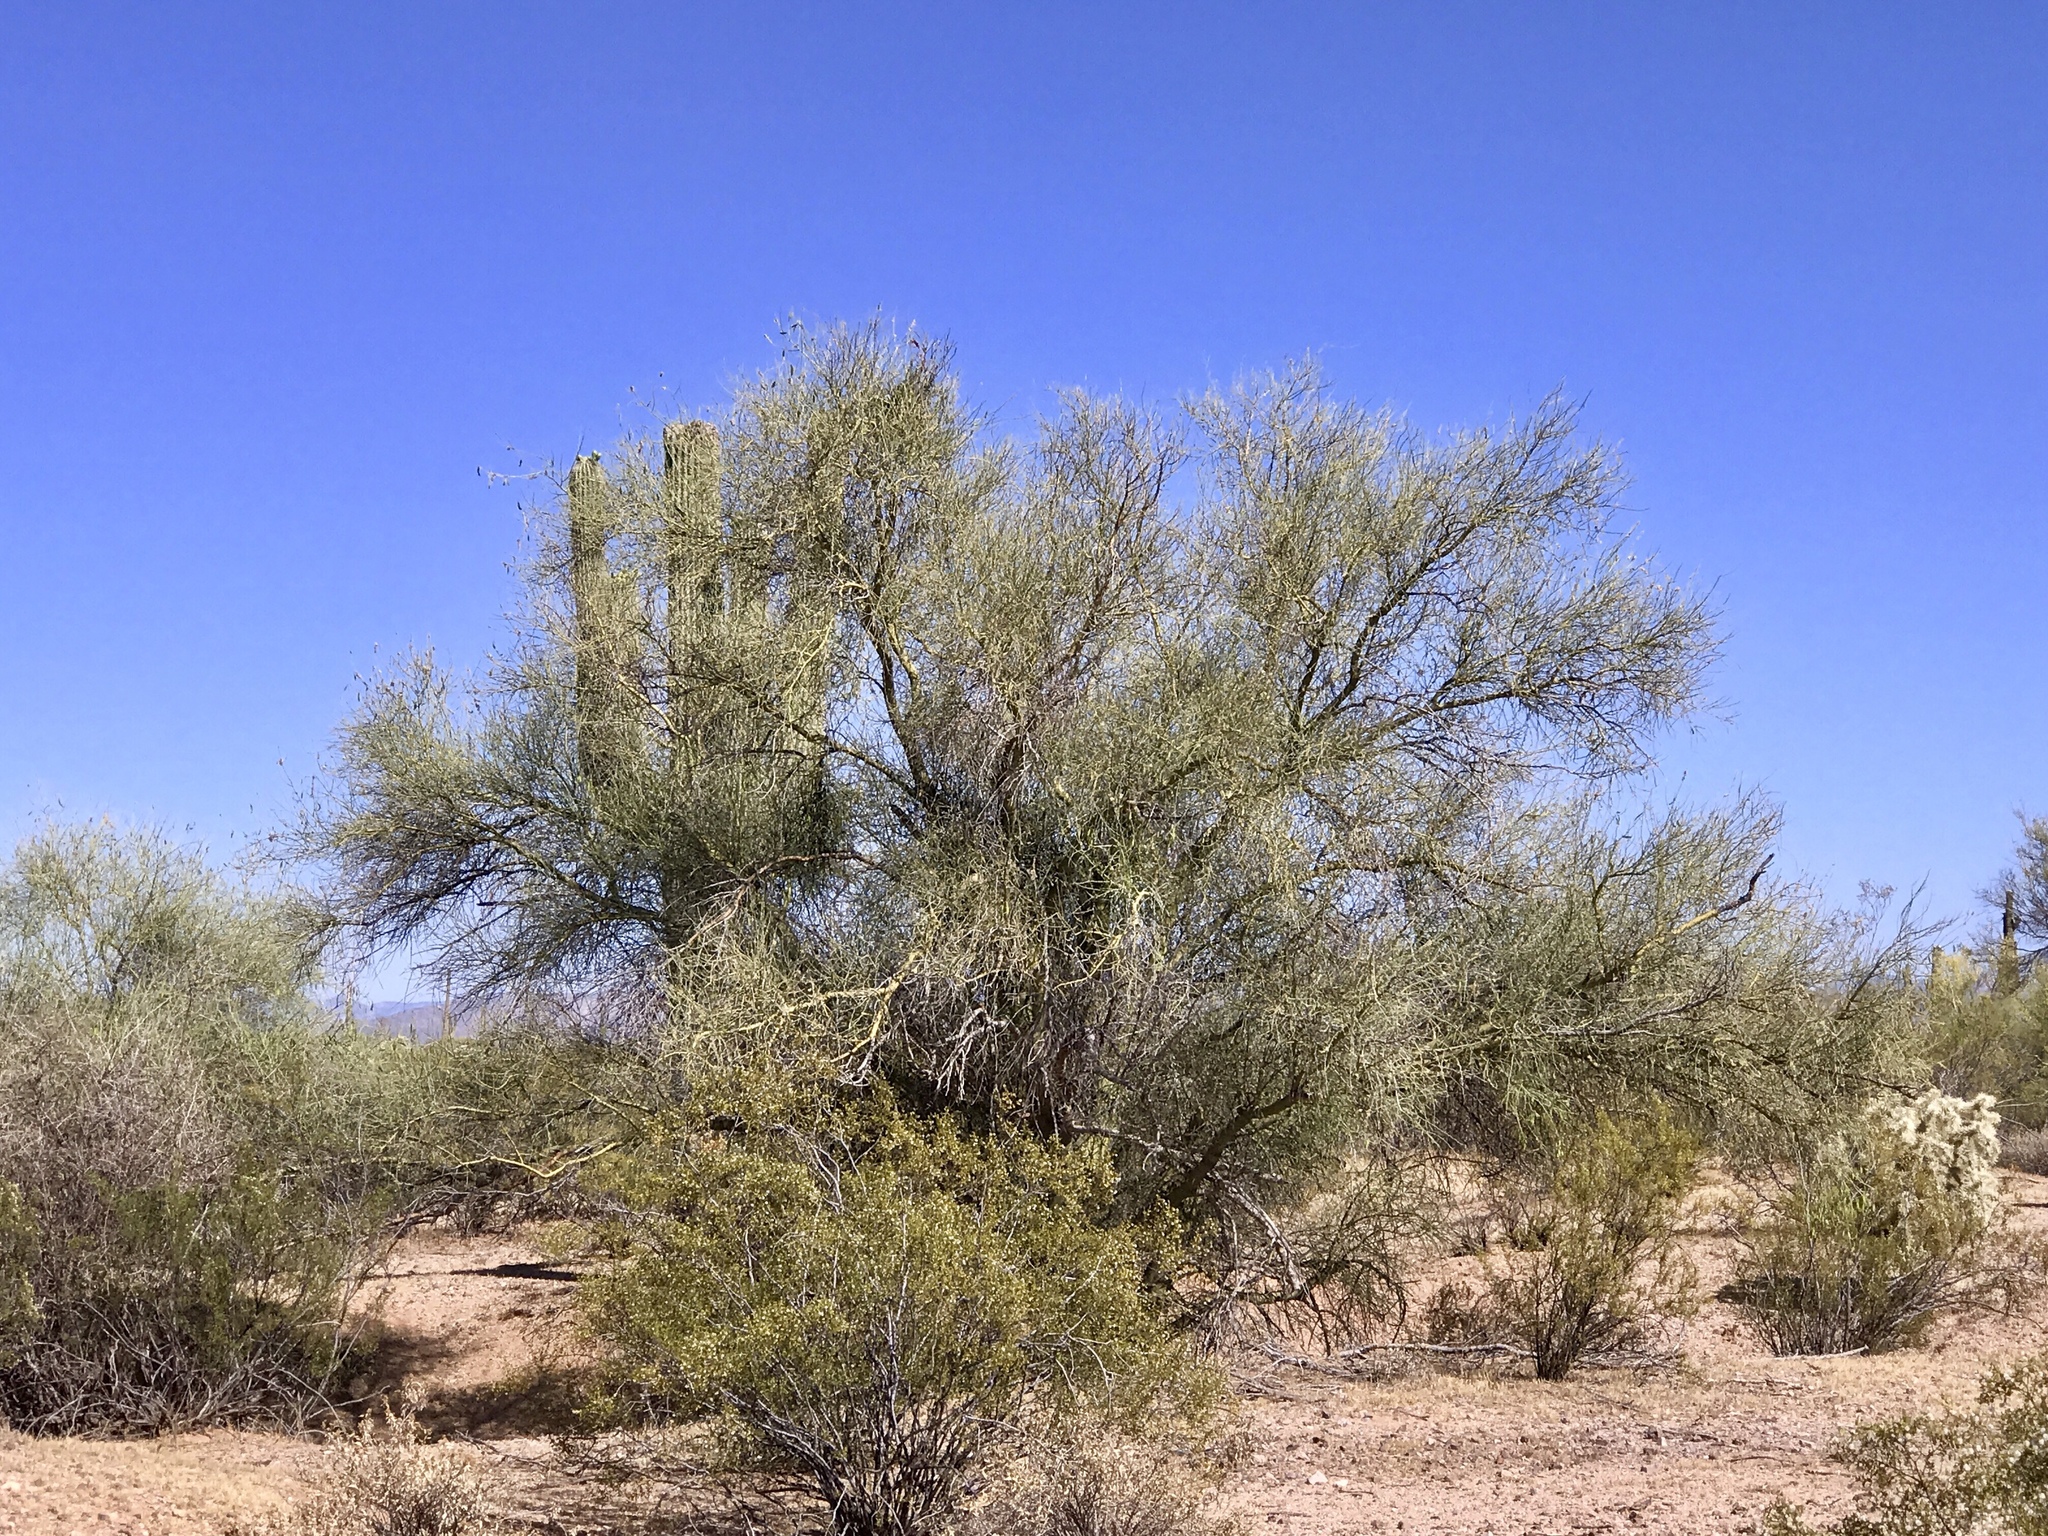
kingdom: Plantae
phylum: Tracheophyta
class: Magnoliopsida
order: Fabales
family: Fabaceae
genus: Parkinsonia
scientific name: Parkinsonia florida
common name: Blue paloverde
